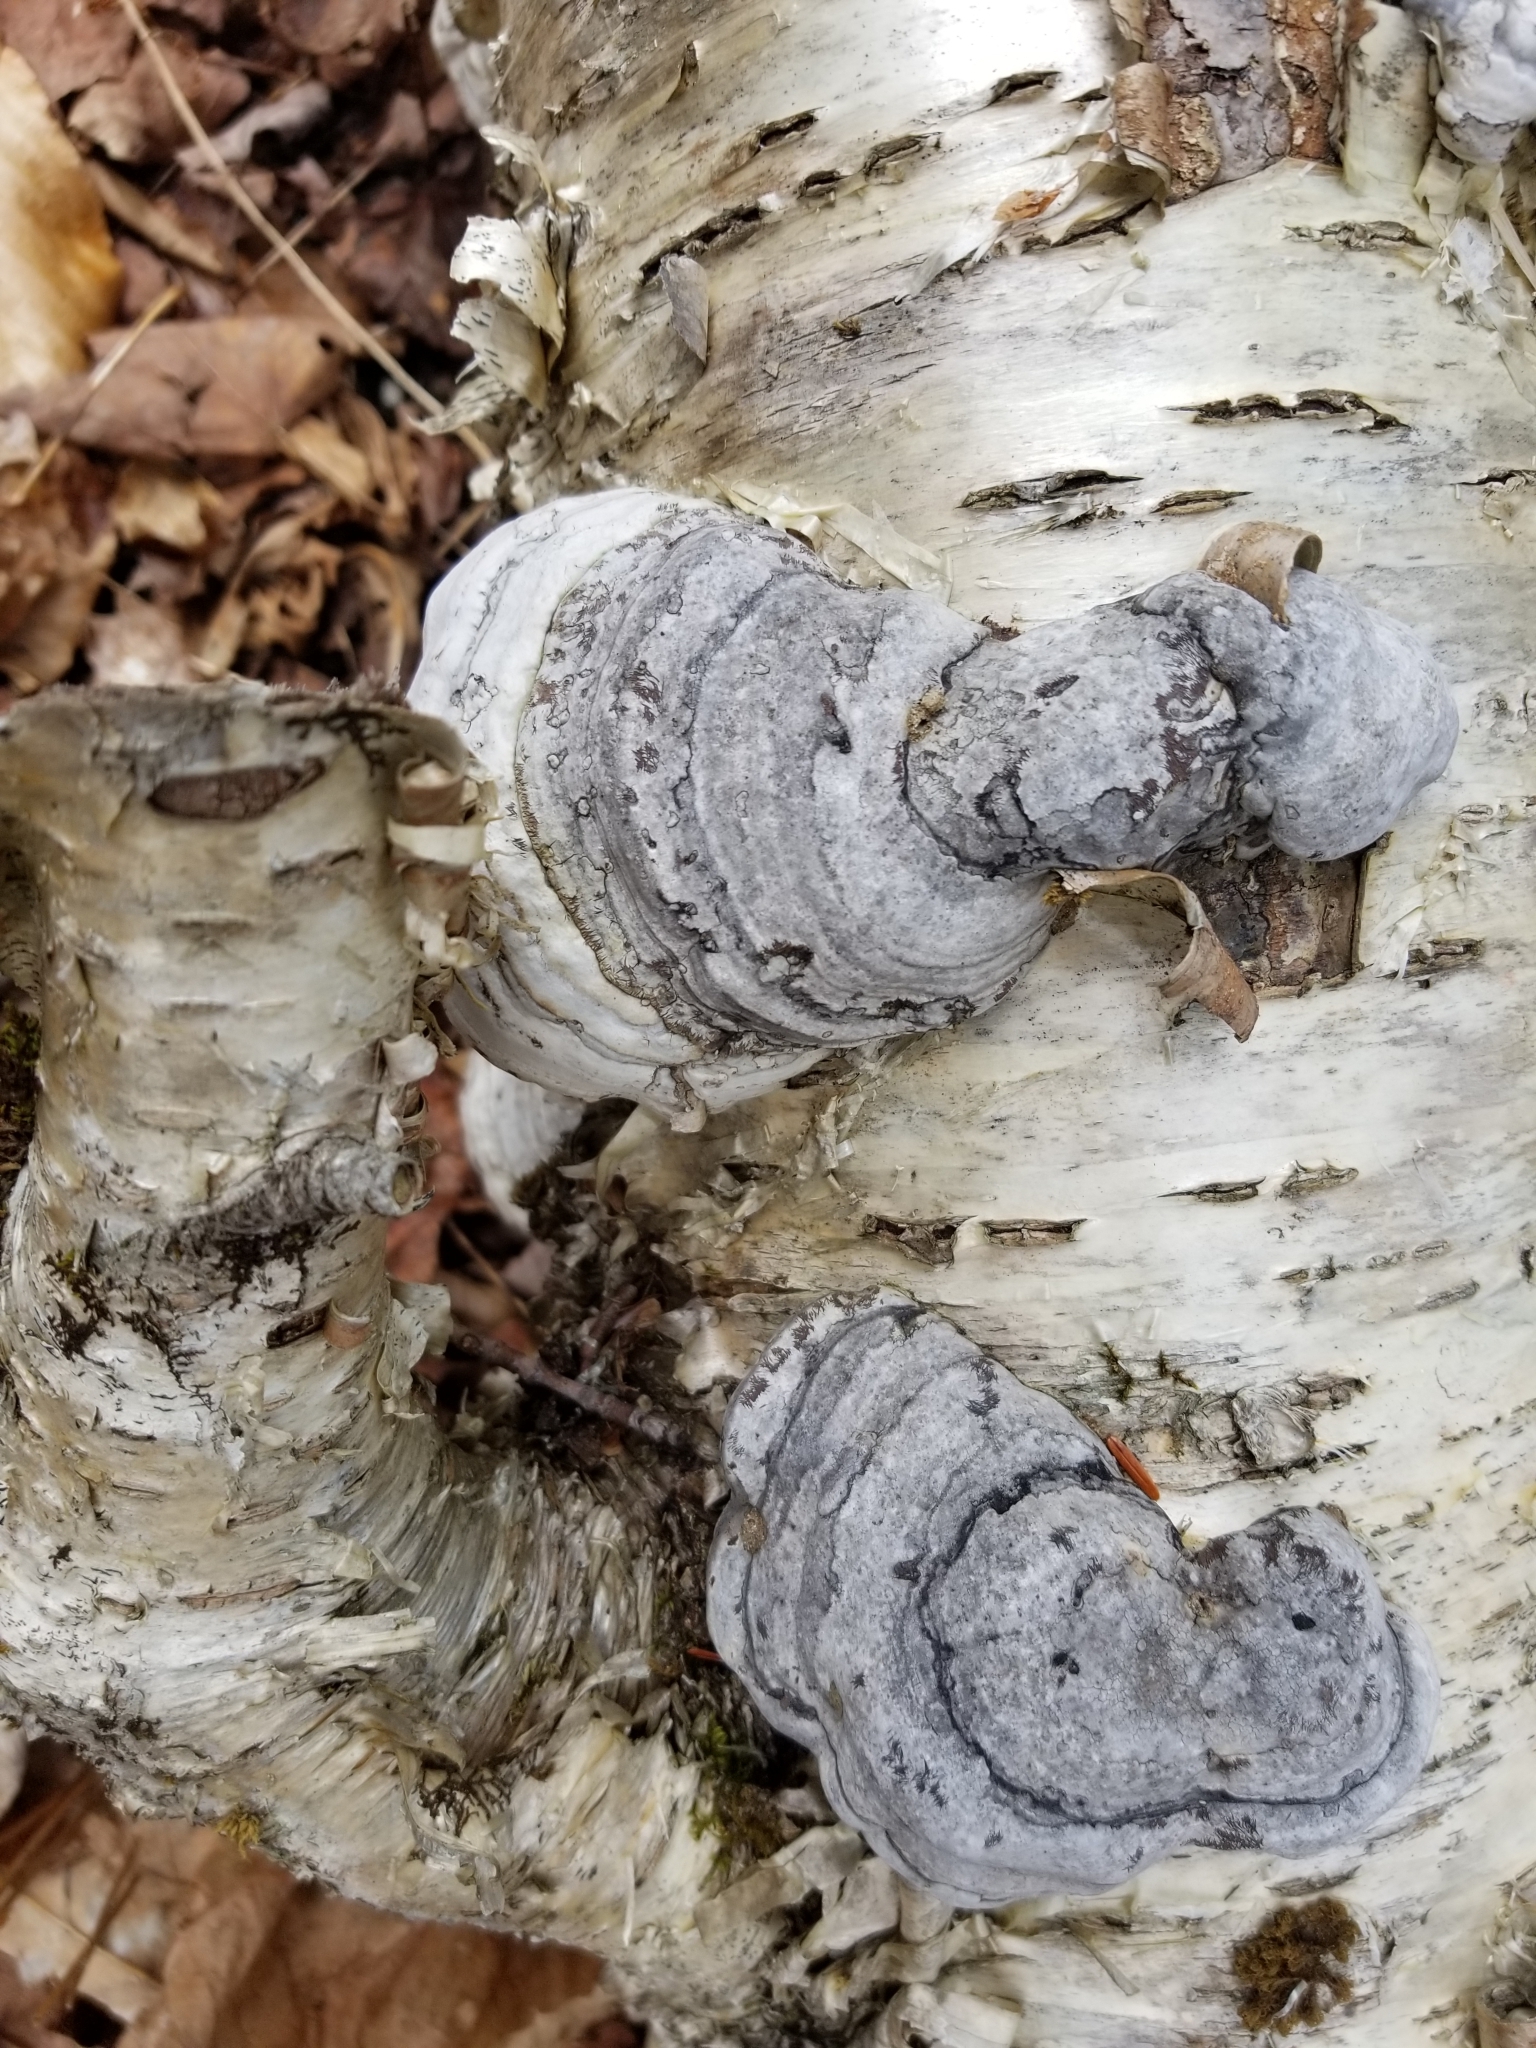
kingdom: Fungi
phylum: Basidiomycota
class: Agaricomycetes
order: Polyporales
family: Polyporaceae
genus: Fomes
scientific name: Fomes fomentarius
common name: Hoof fungus
